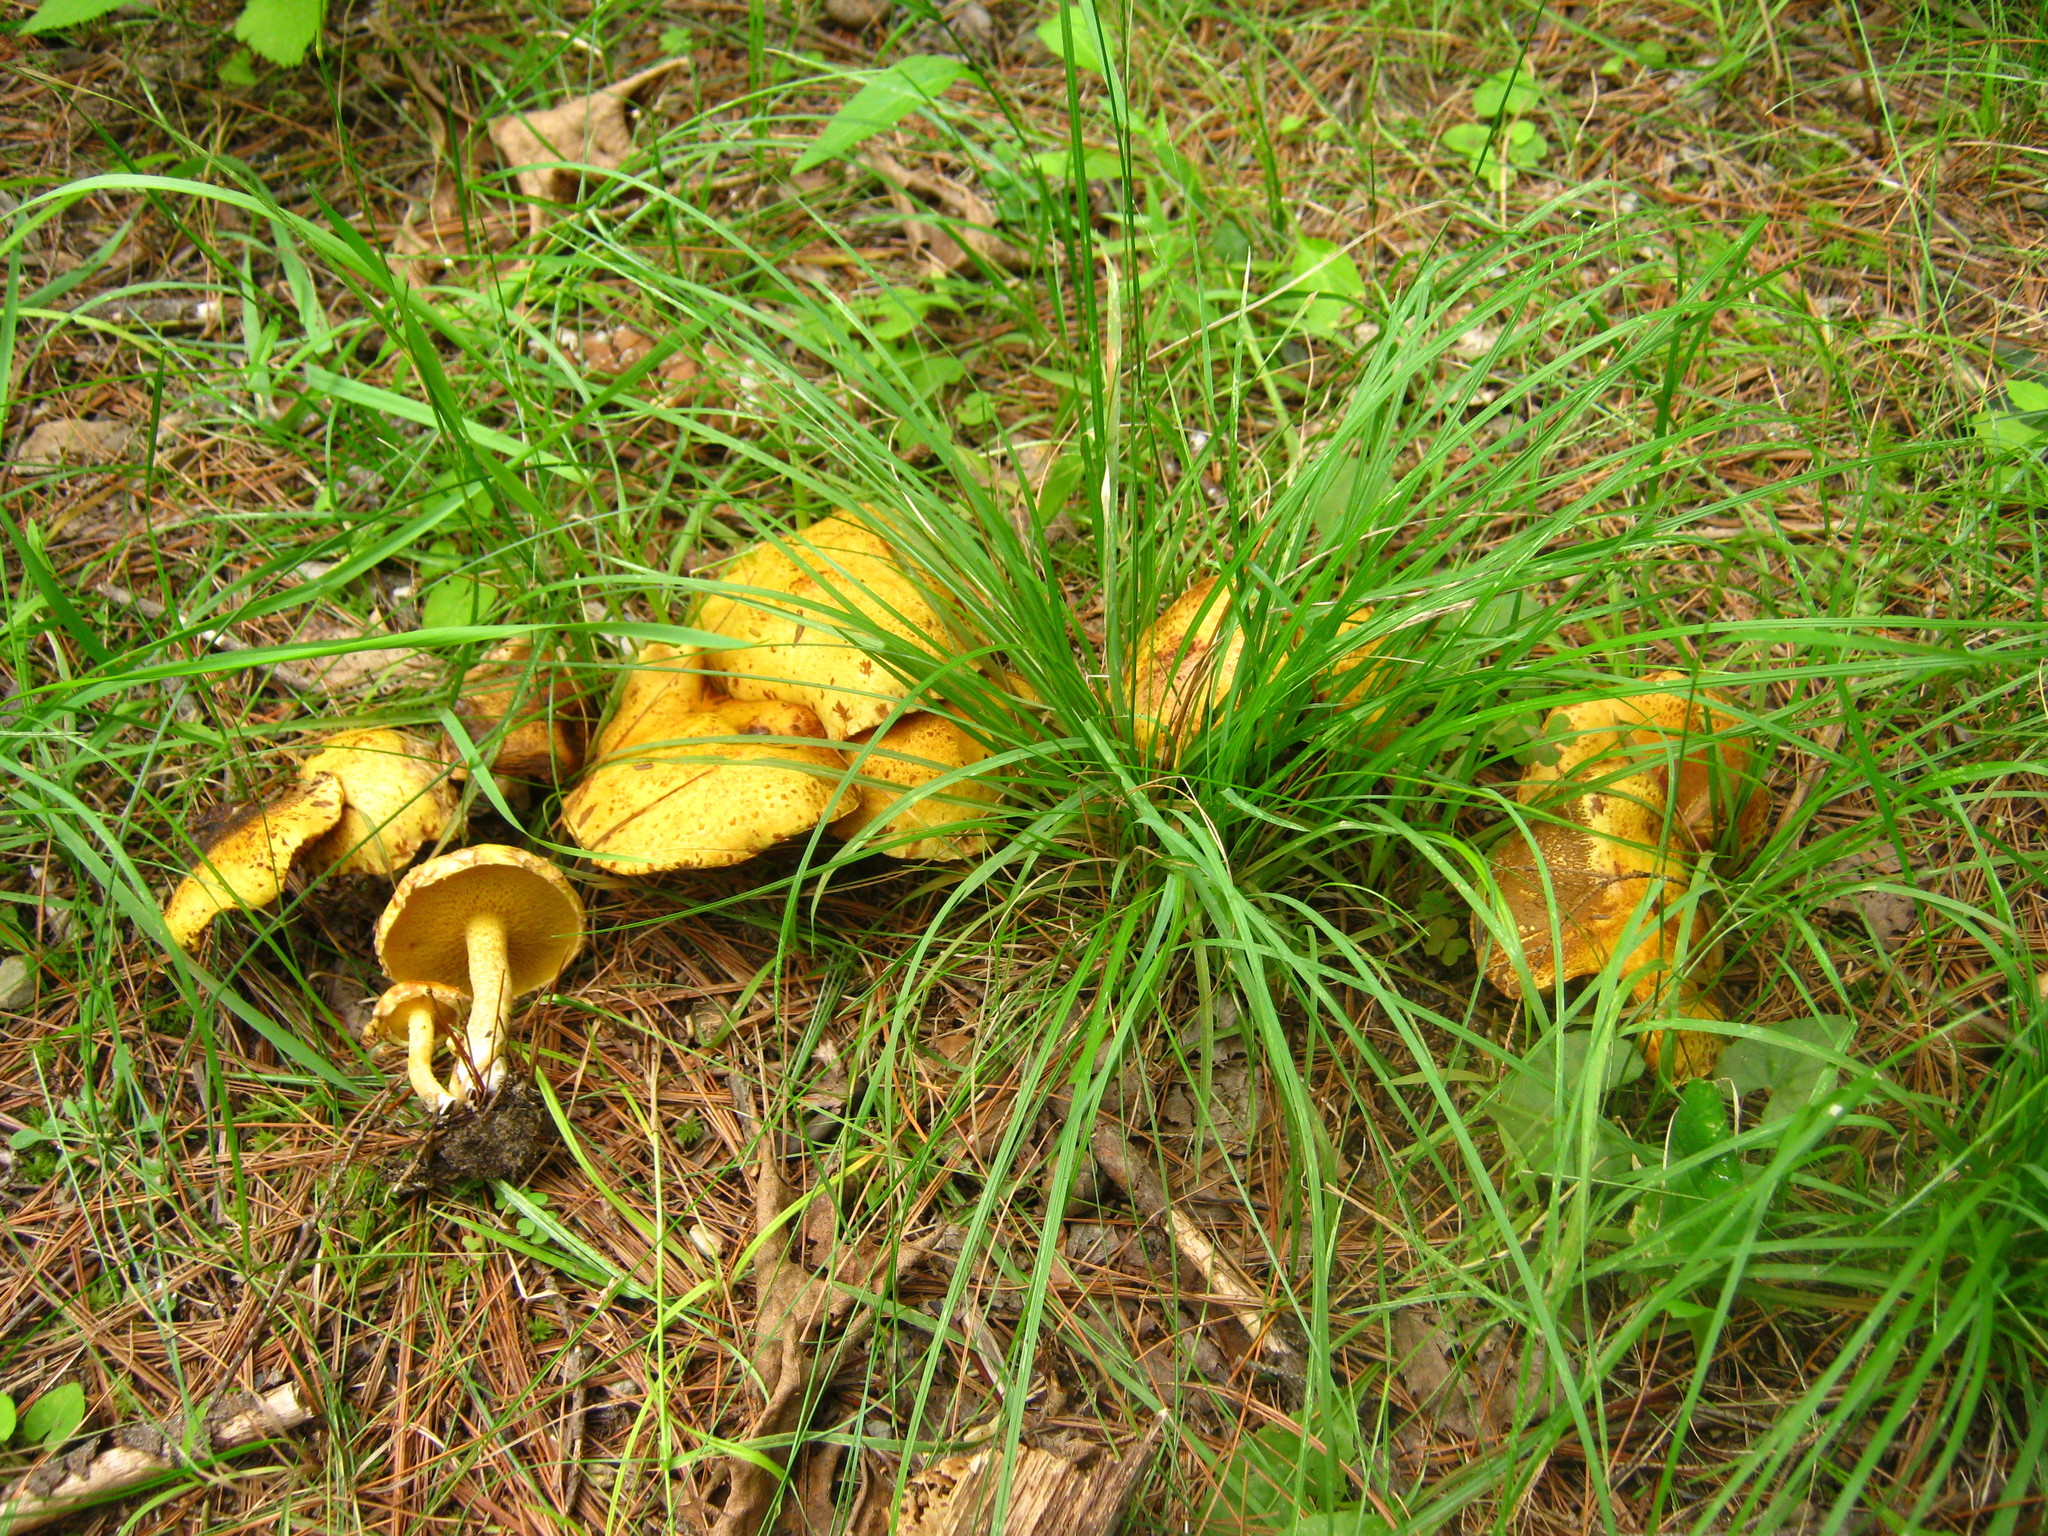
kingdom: Fungi
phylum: Basidiomycota
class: Agaricomycetes
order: Boletales
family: Suillaceae
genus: Suillus
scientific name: Suillus americanus
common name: Chicken fat mushroom
